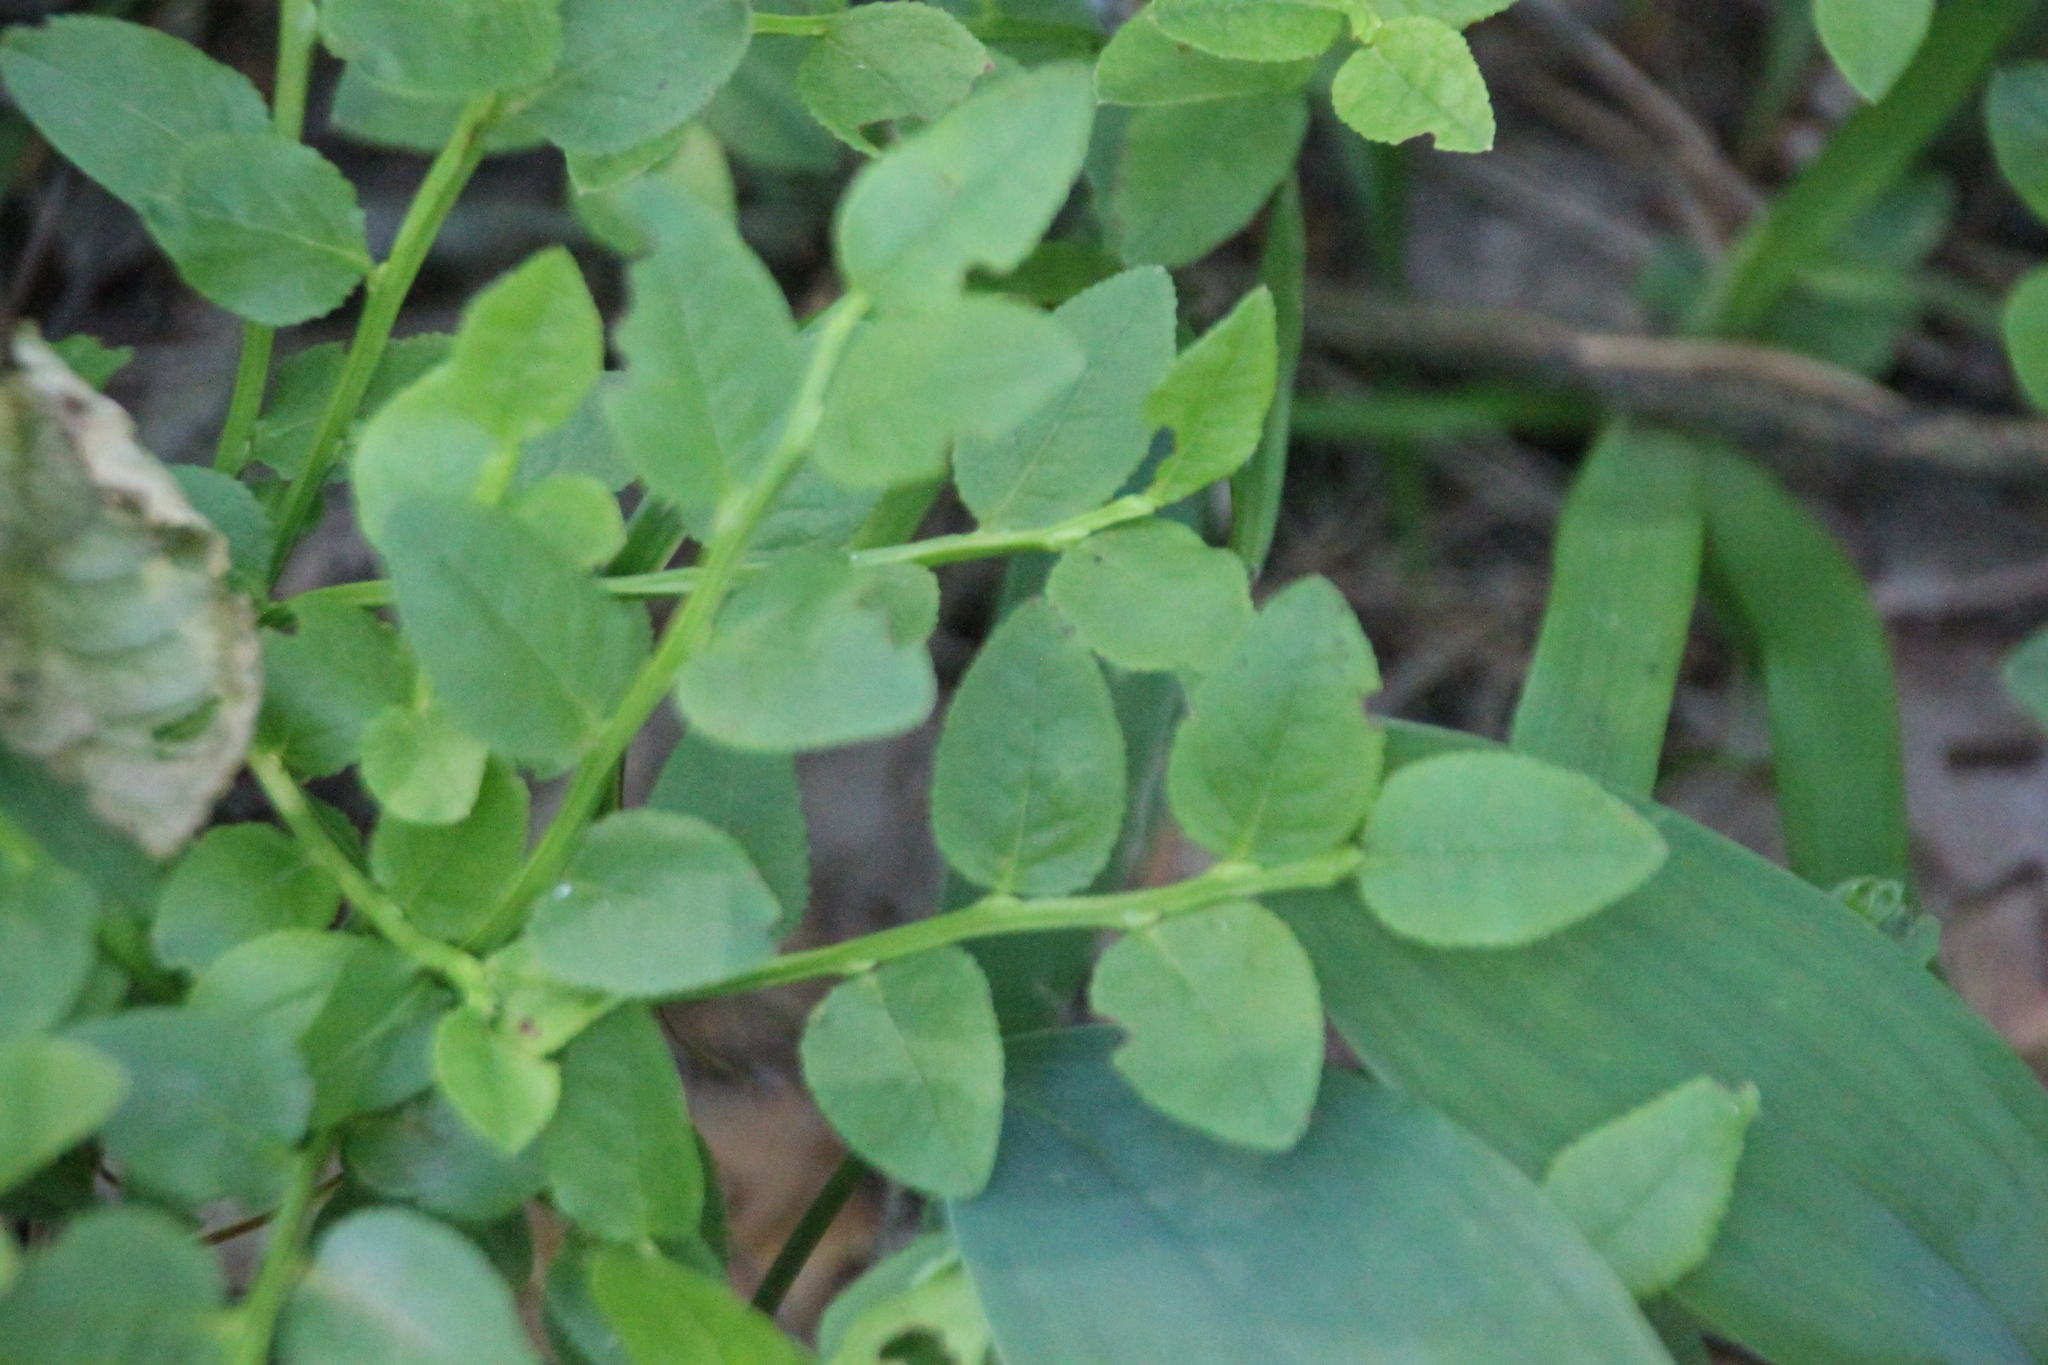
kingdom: Plantae
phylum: Tracheophyta
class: Magnoliopsida
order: Ericales
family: Ericaceae
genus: Vaccinium
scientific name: Vaccinium myrtillus
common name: Bilberry
